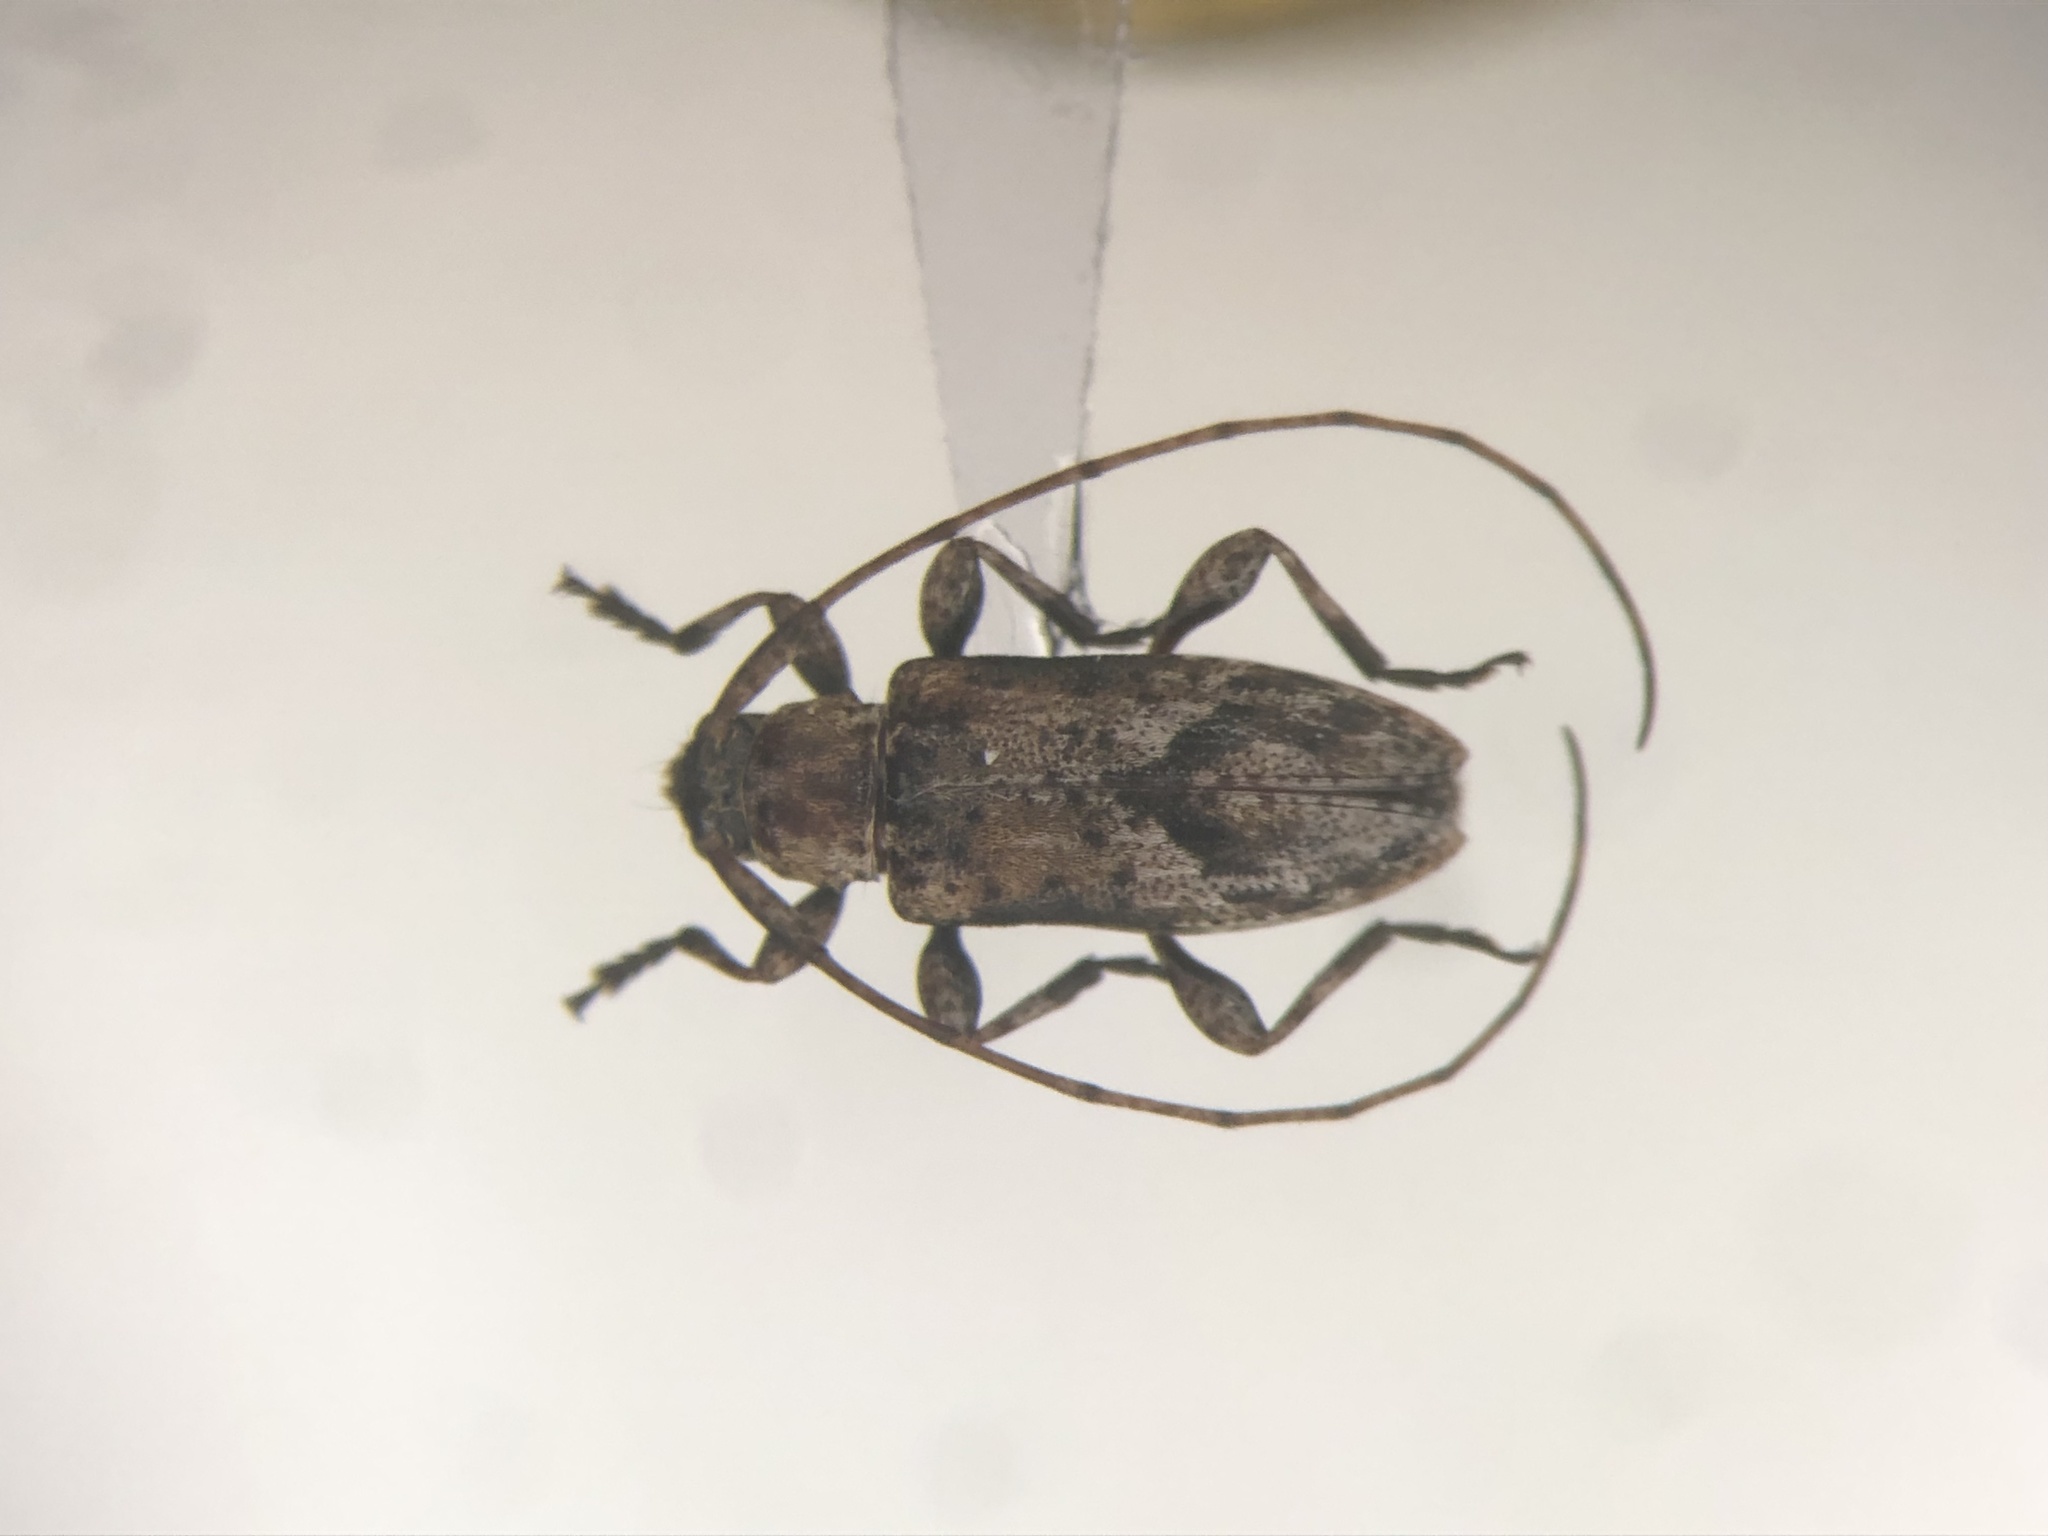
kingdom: Animalia
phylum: Arthropoda
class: Insecta
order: Coleoptera
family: Cerambycidae
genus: Sternidius
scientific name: Sternidius alpha
